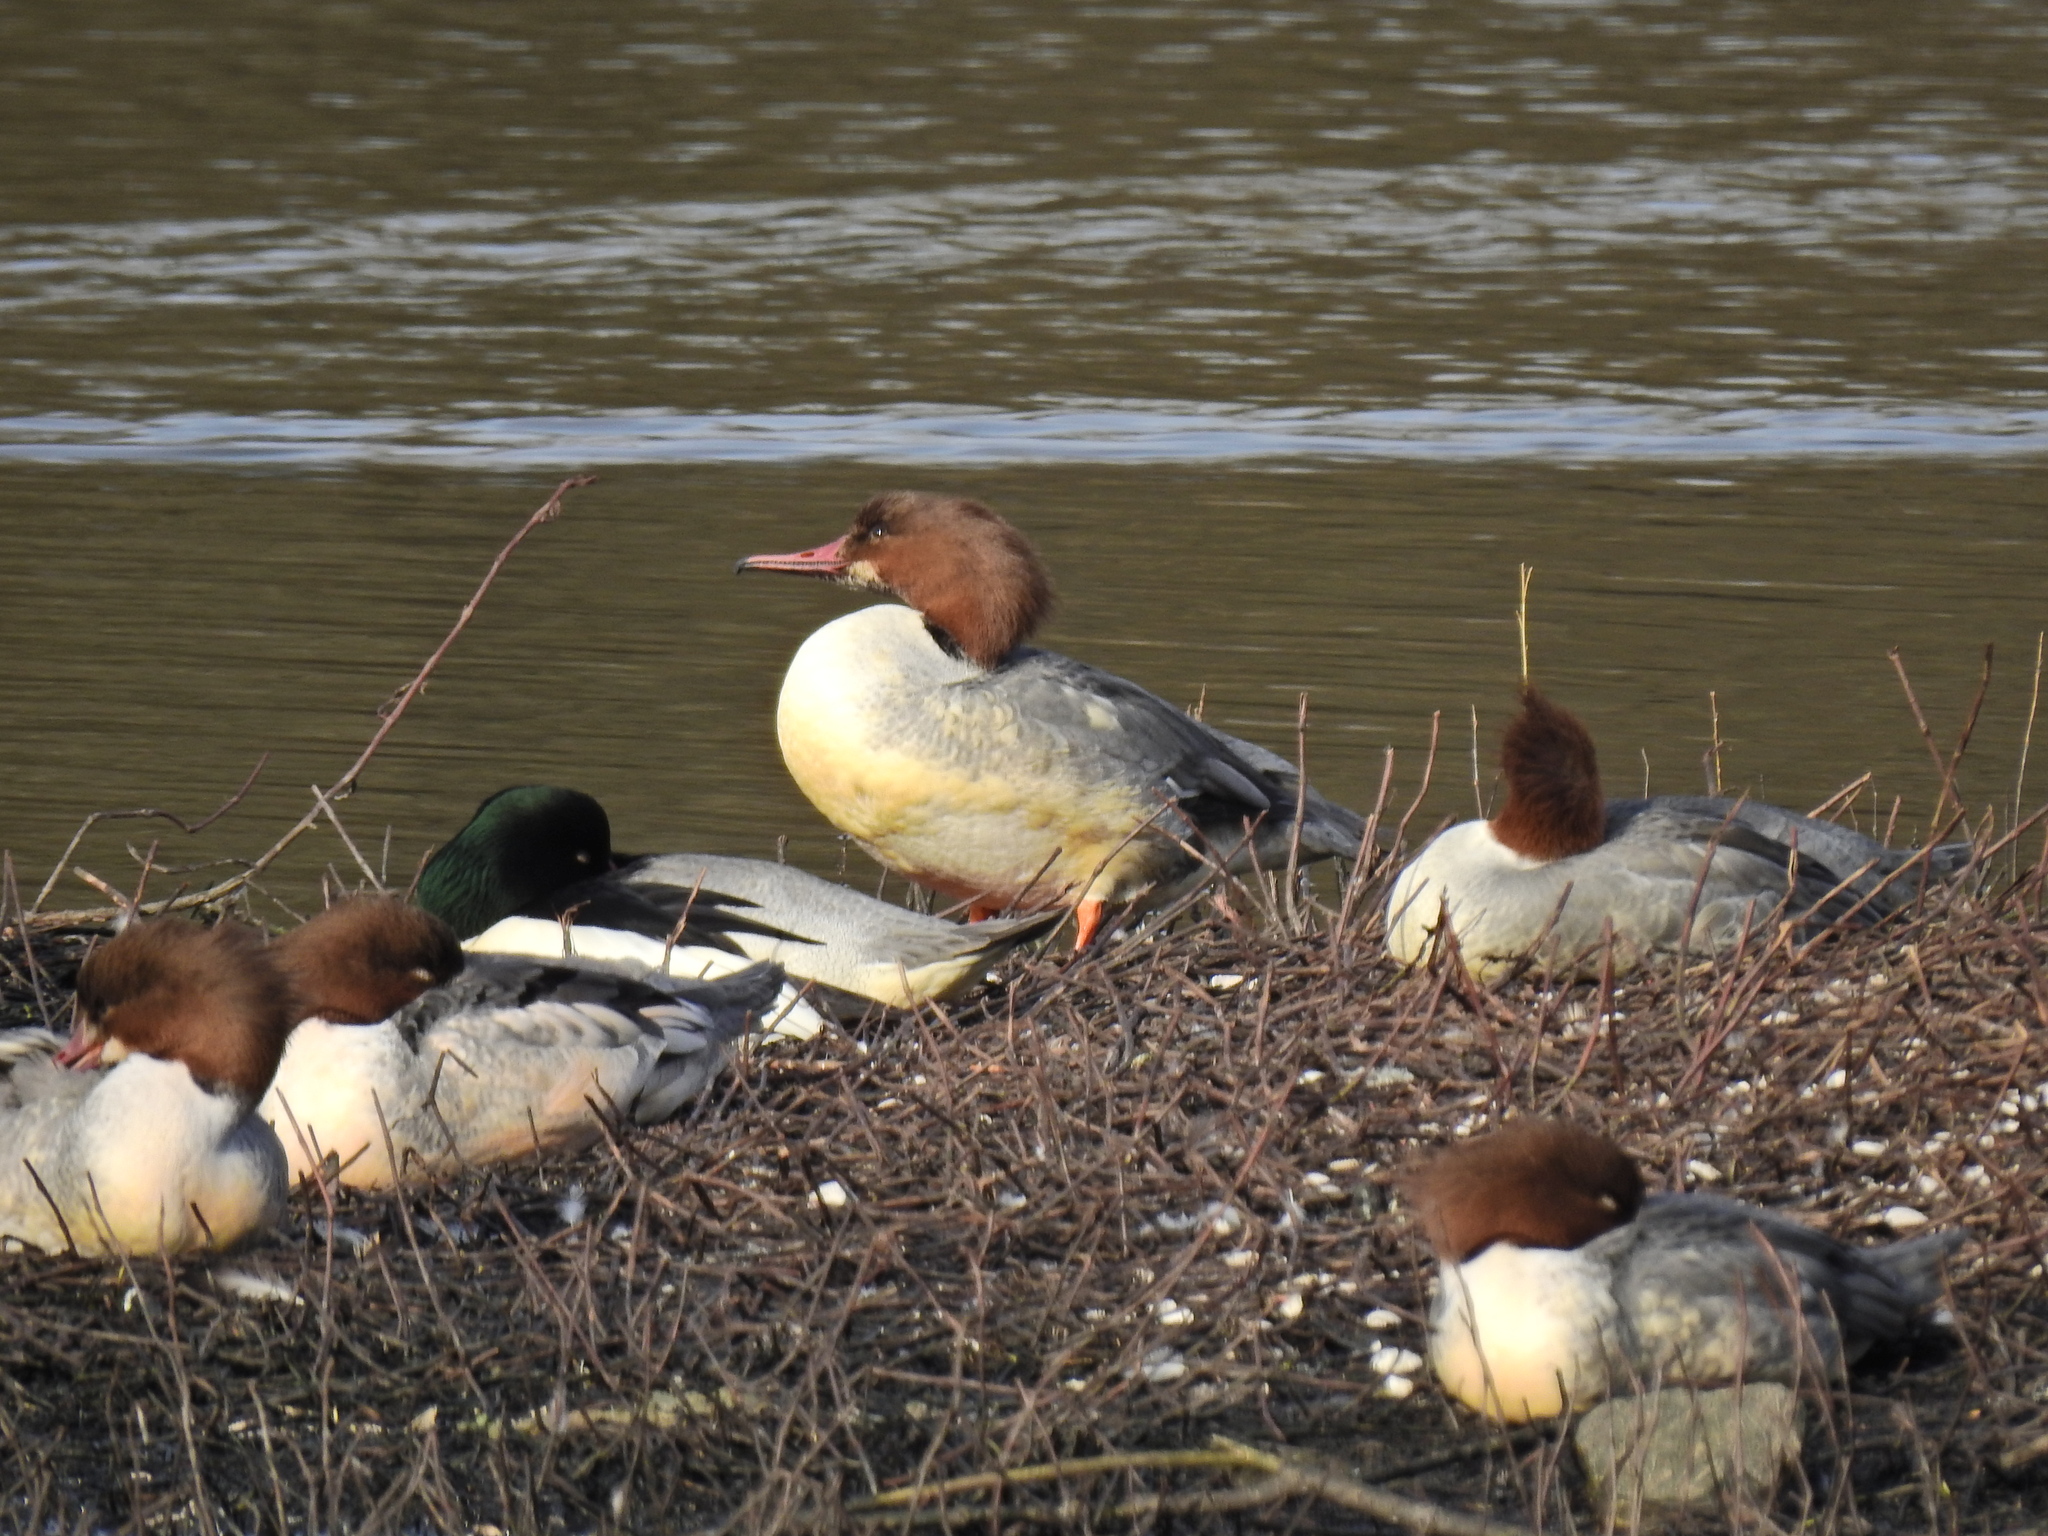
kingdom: Animalia
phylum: Chordata
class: Aves
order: Anseriformes
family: Anatidae
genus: Mergus
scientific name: Mergus merganser
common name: Common merganser
